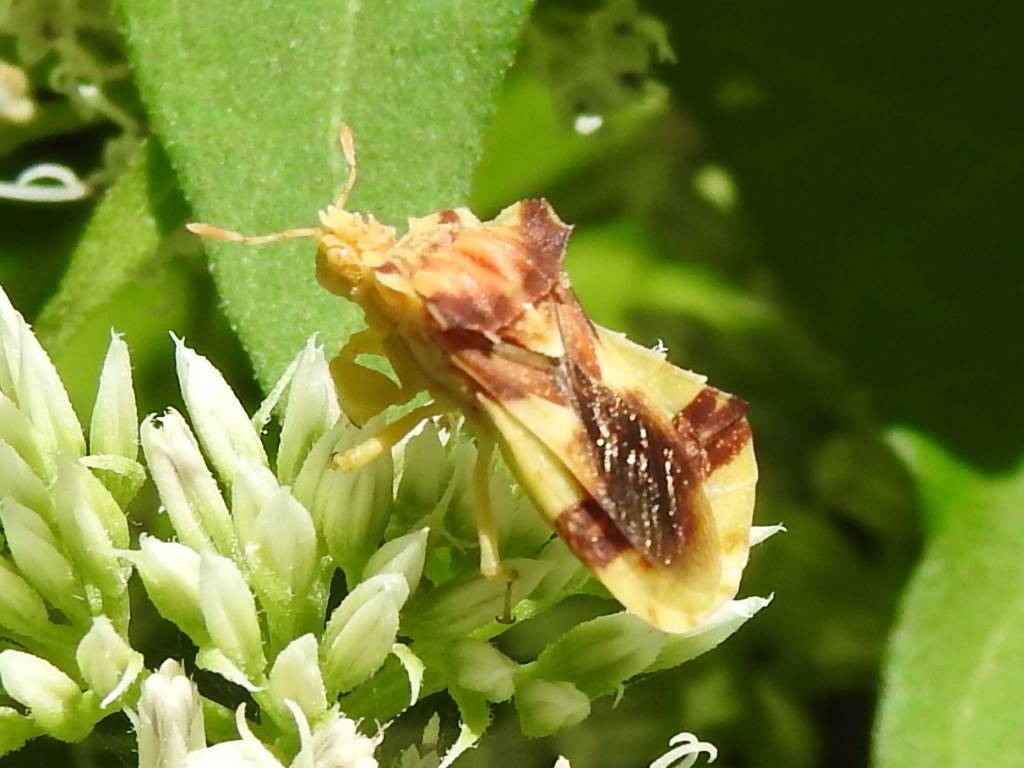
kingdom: Animalia
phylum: Arthropoda
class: Insecta
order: Hemiptera
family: Reduviidae
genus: Phymata
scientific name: Phymata americana
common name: Jagged ambush bug
